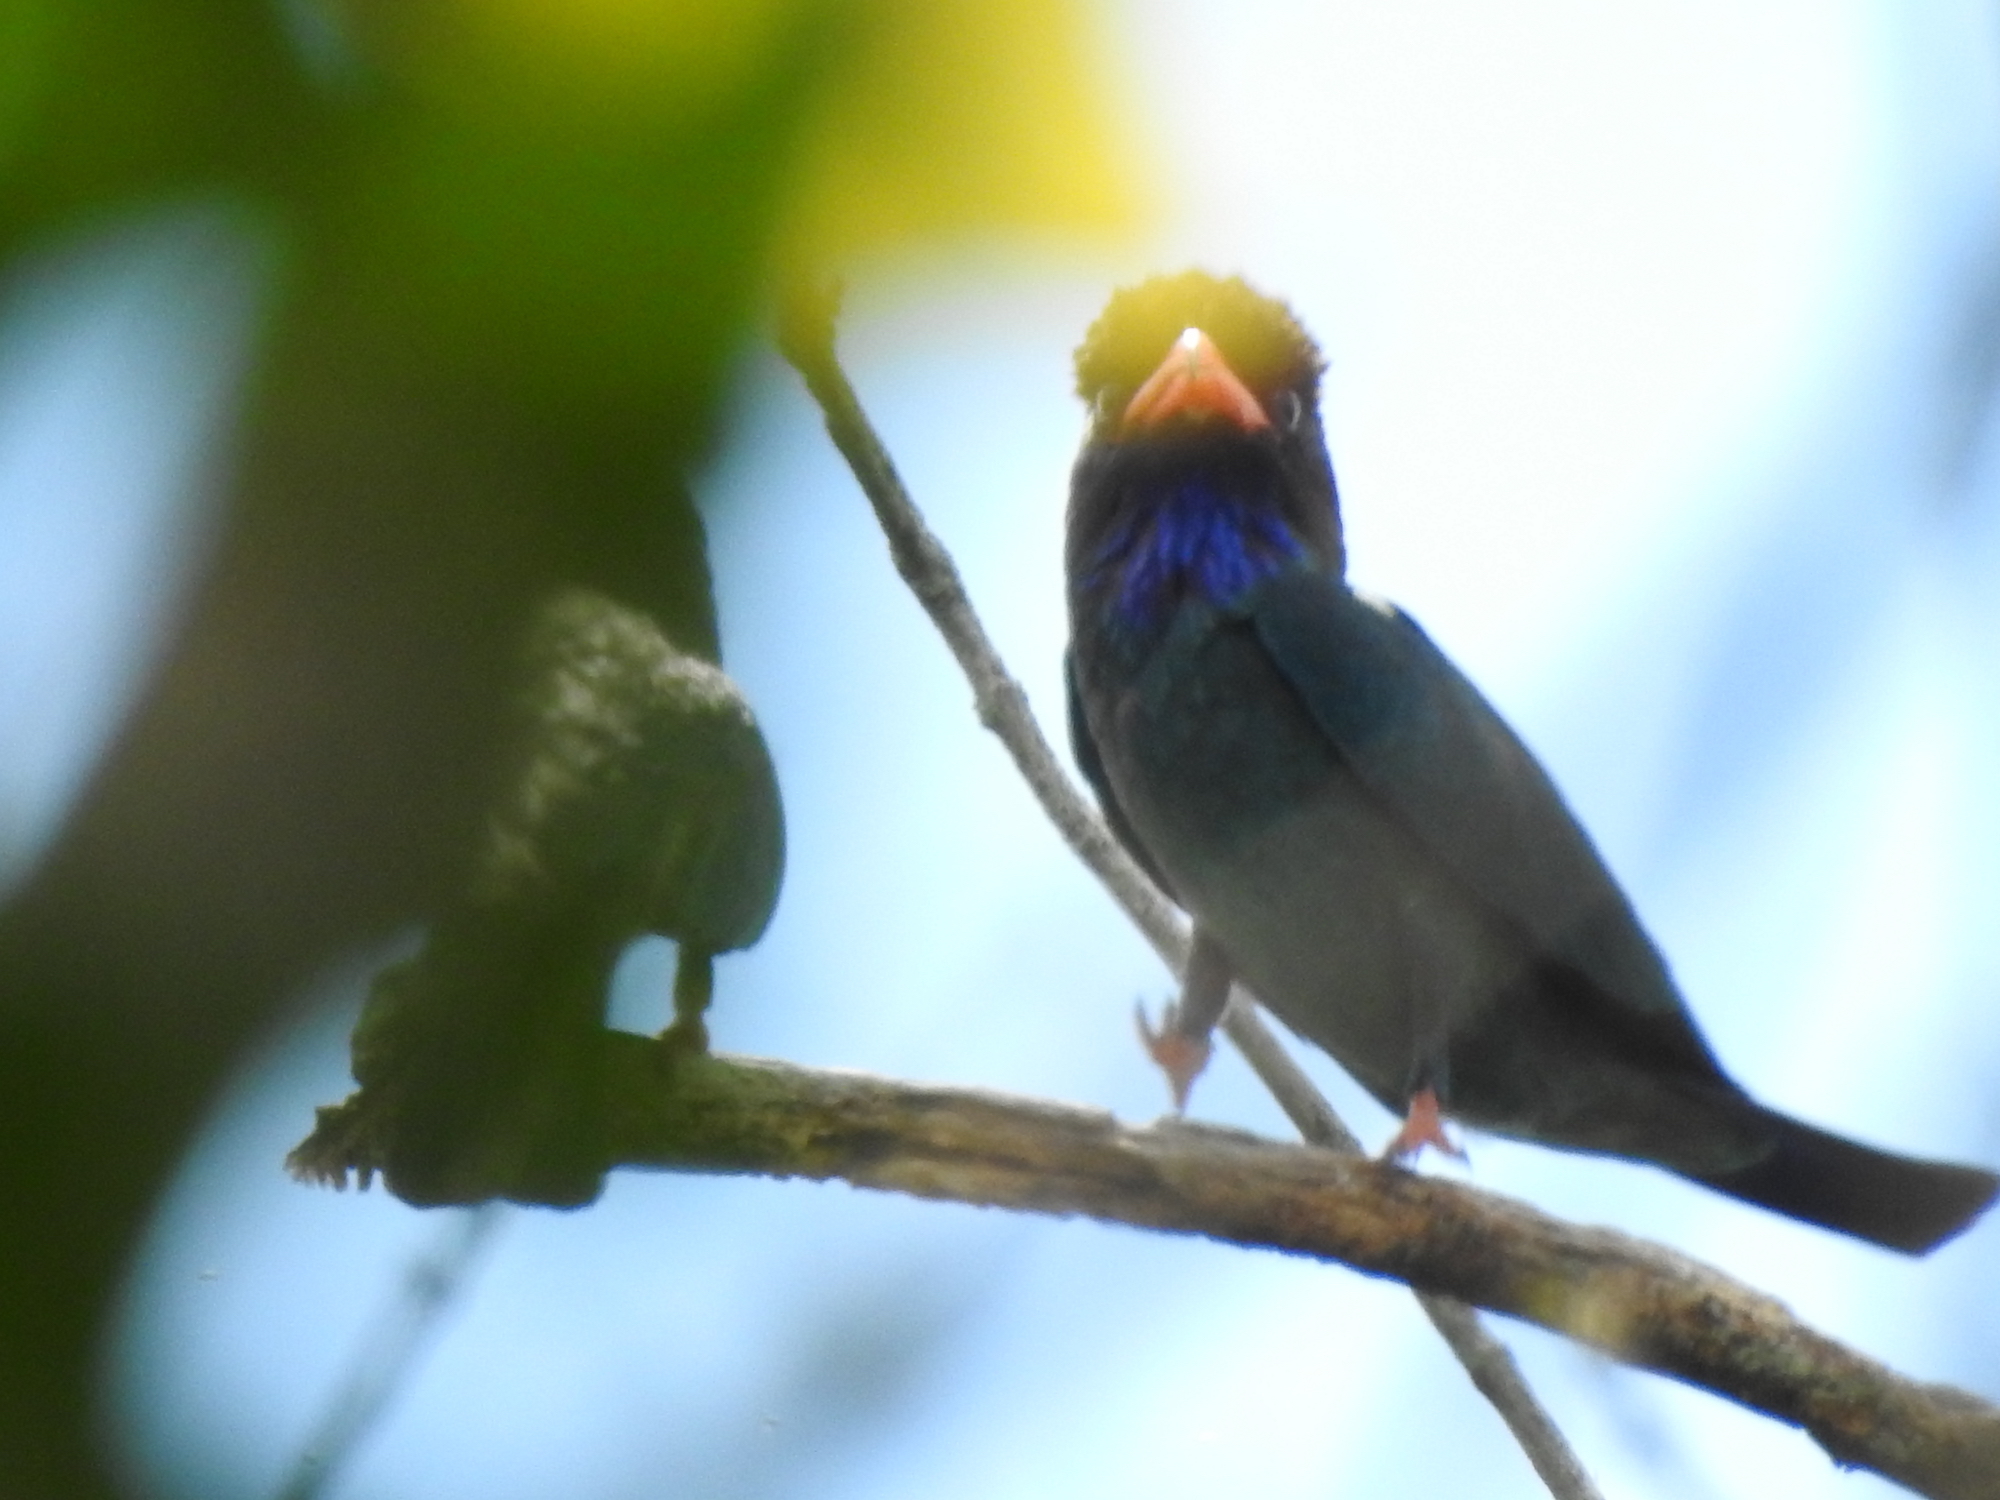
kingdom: Animalia
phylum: Chordata
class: Aves
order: Coraciiformes
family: Coraciidae
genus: Eurystomus
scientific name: Eurystomus orientalis
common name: Oriental dollarbird
